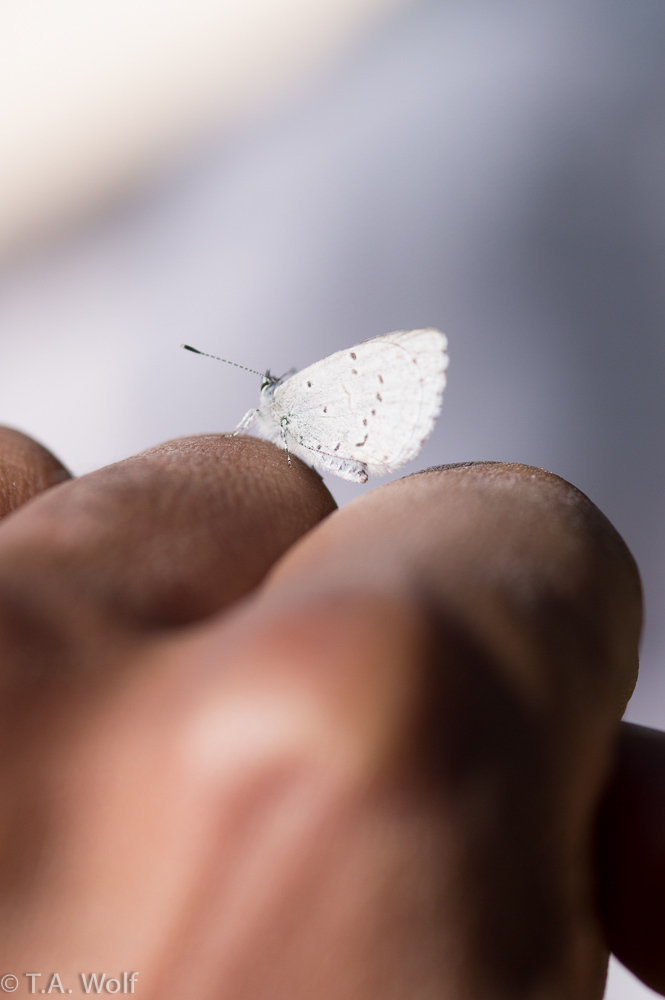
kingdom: Animalia
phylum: Arthropoda
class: Insecta
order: Lepidoptera
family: Lycaenidae
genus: Celastrina
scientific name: Celastrina ladon
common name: Spring azure
